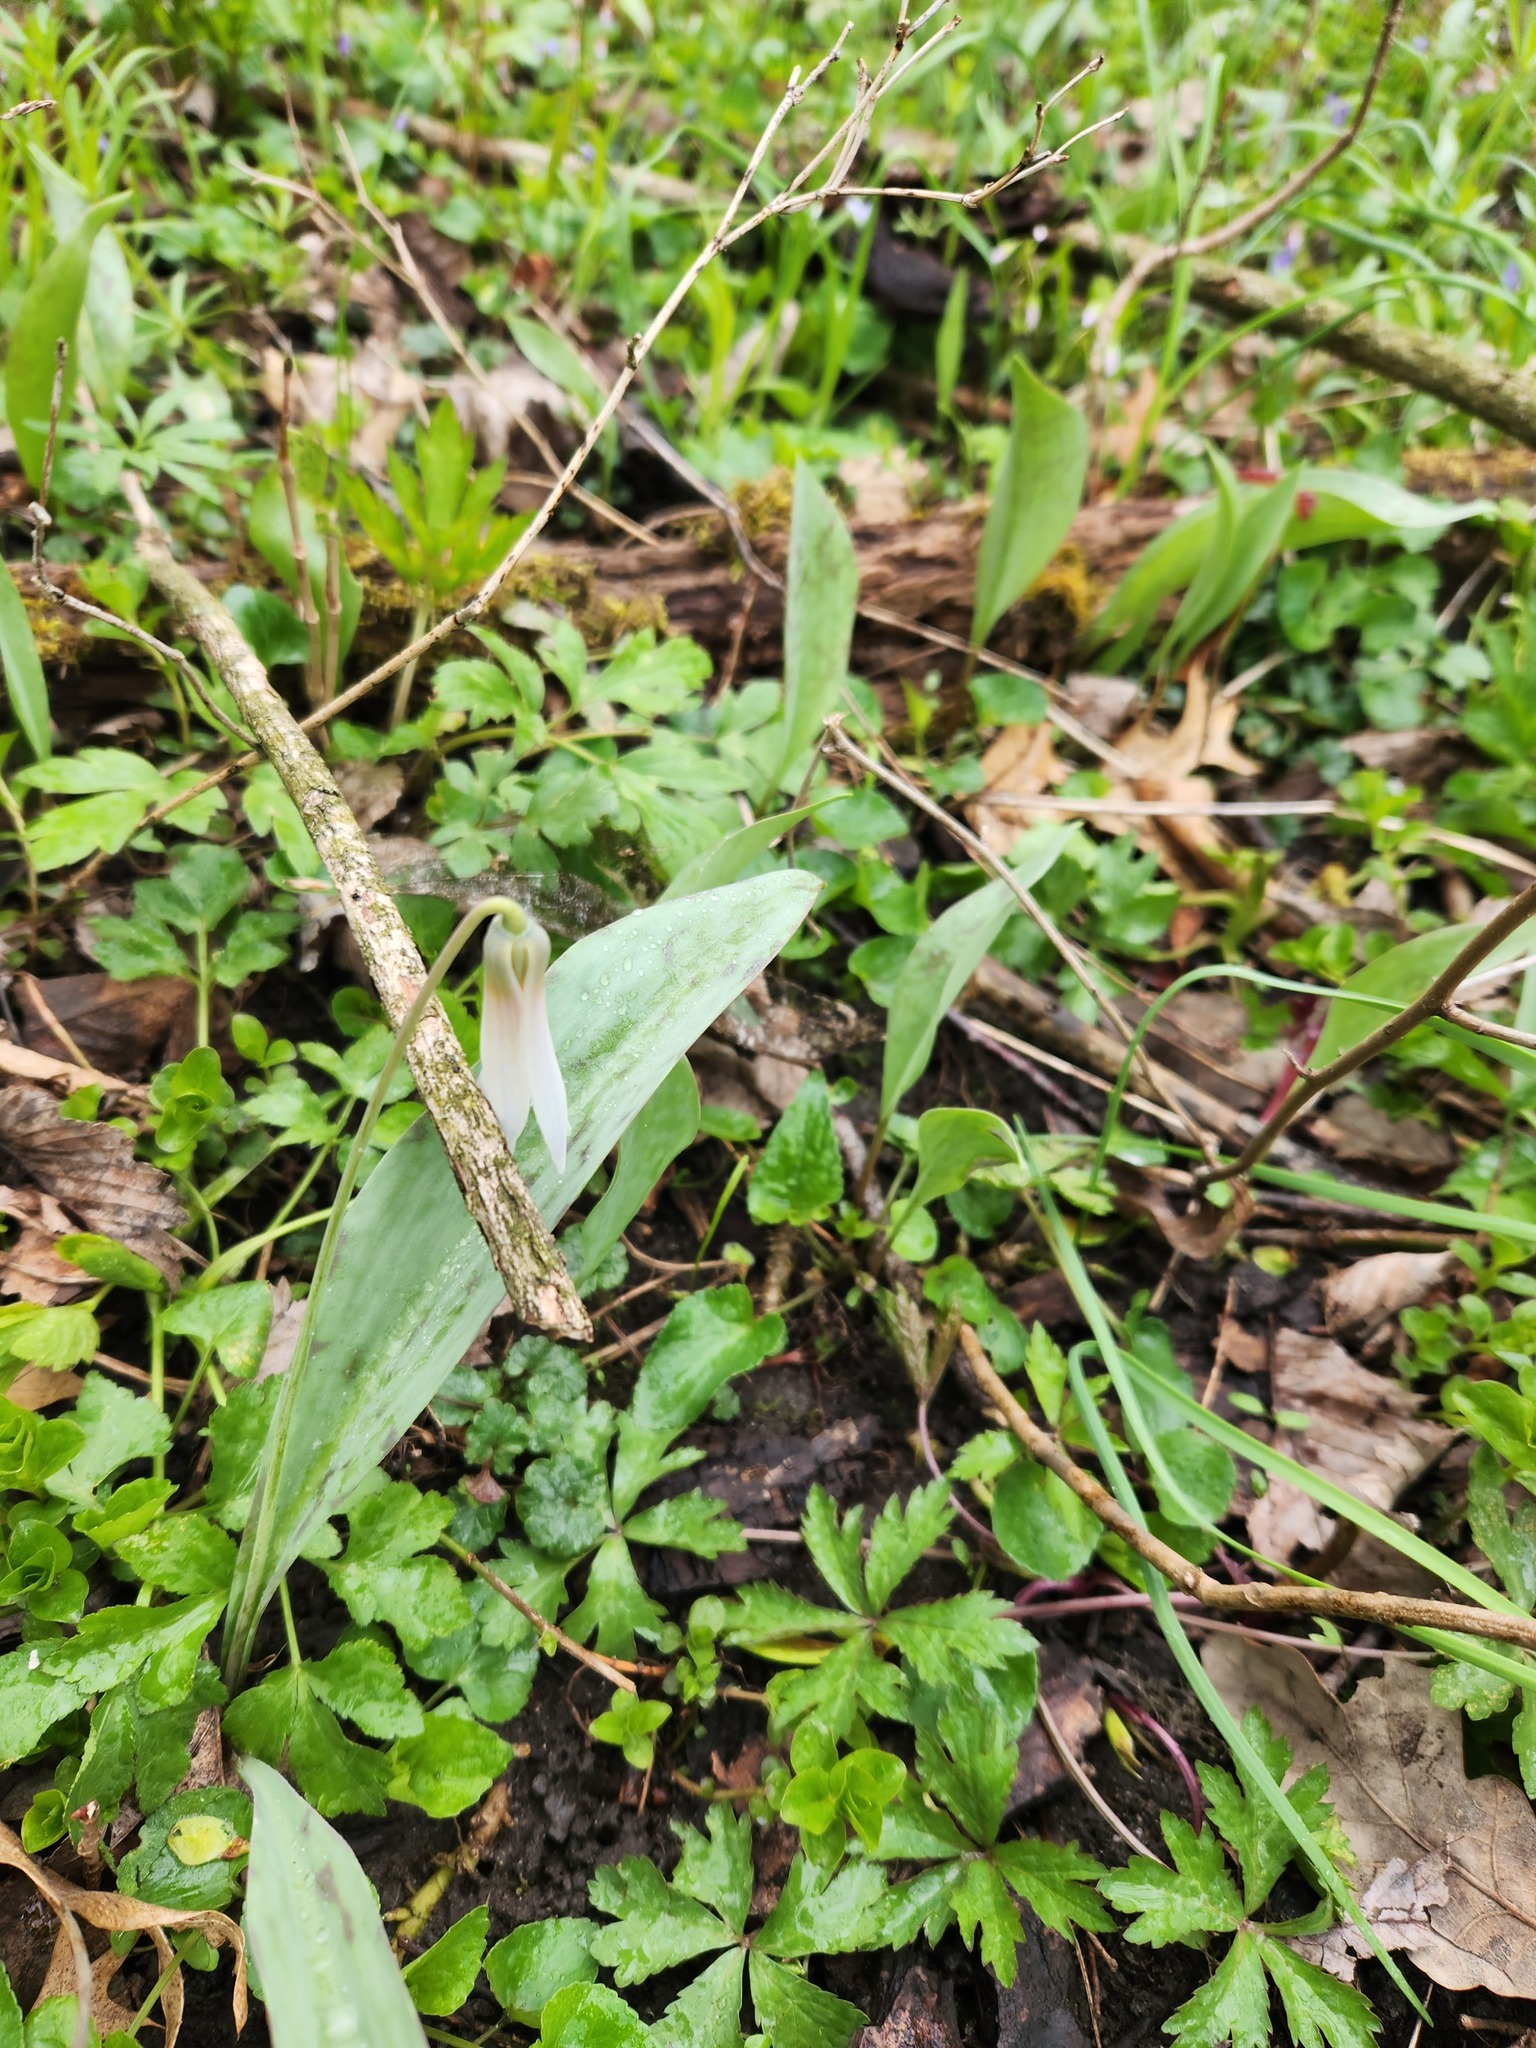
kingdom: Plantae
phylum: Tracheophyta
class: Liliopsida
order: Liliales
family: Liliaceae
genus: Erythronium
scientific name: Erythronium albidum
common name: White trout-lily
